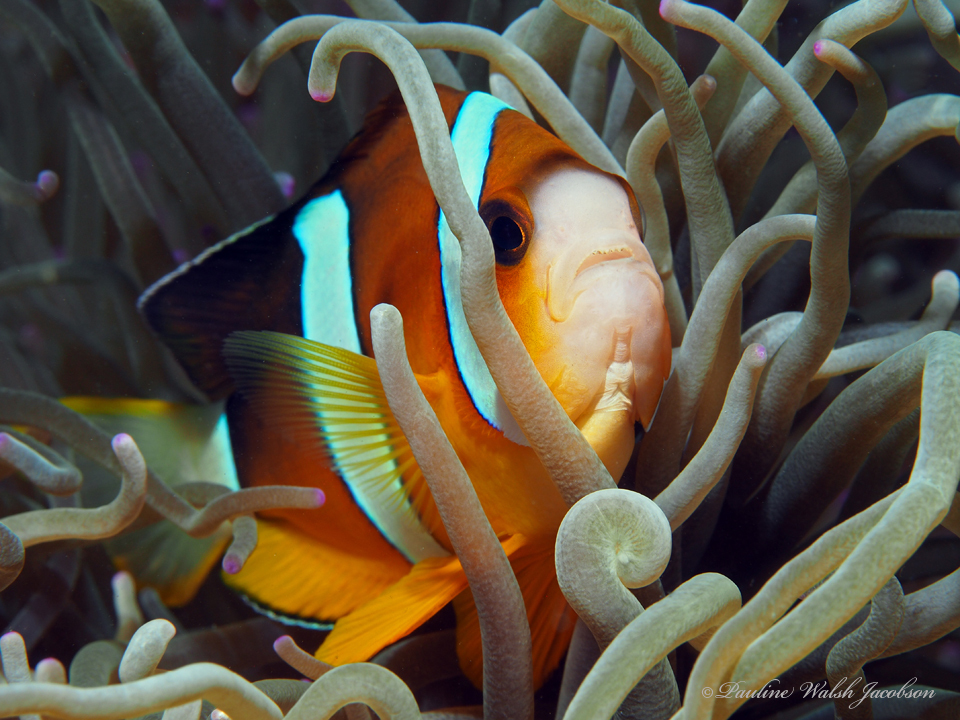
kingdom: Animalia
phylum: Chordata
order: Perciformes
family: Pomacentridae
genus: Amphiprion
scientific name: Amphiprion clarkii
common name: Clark's anemonefish
